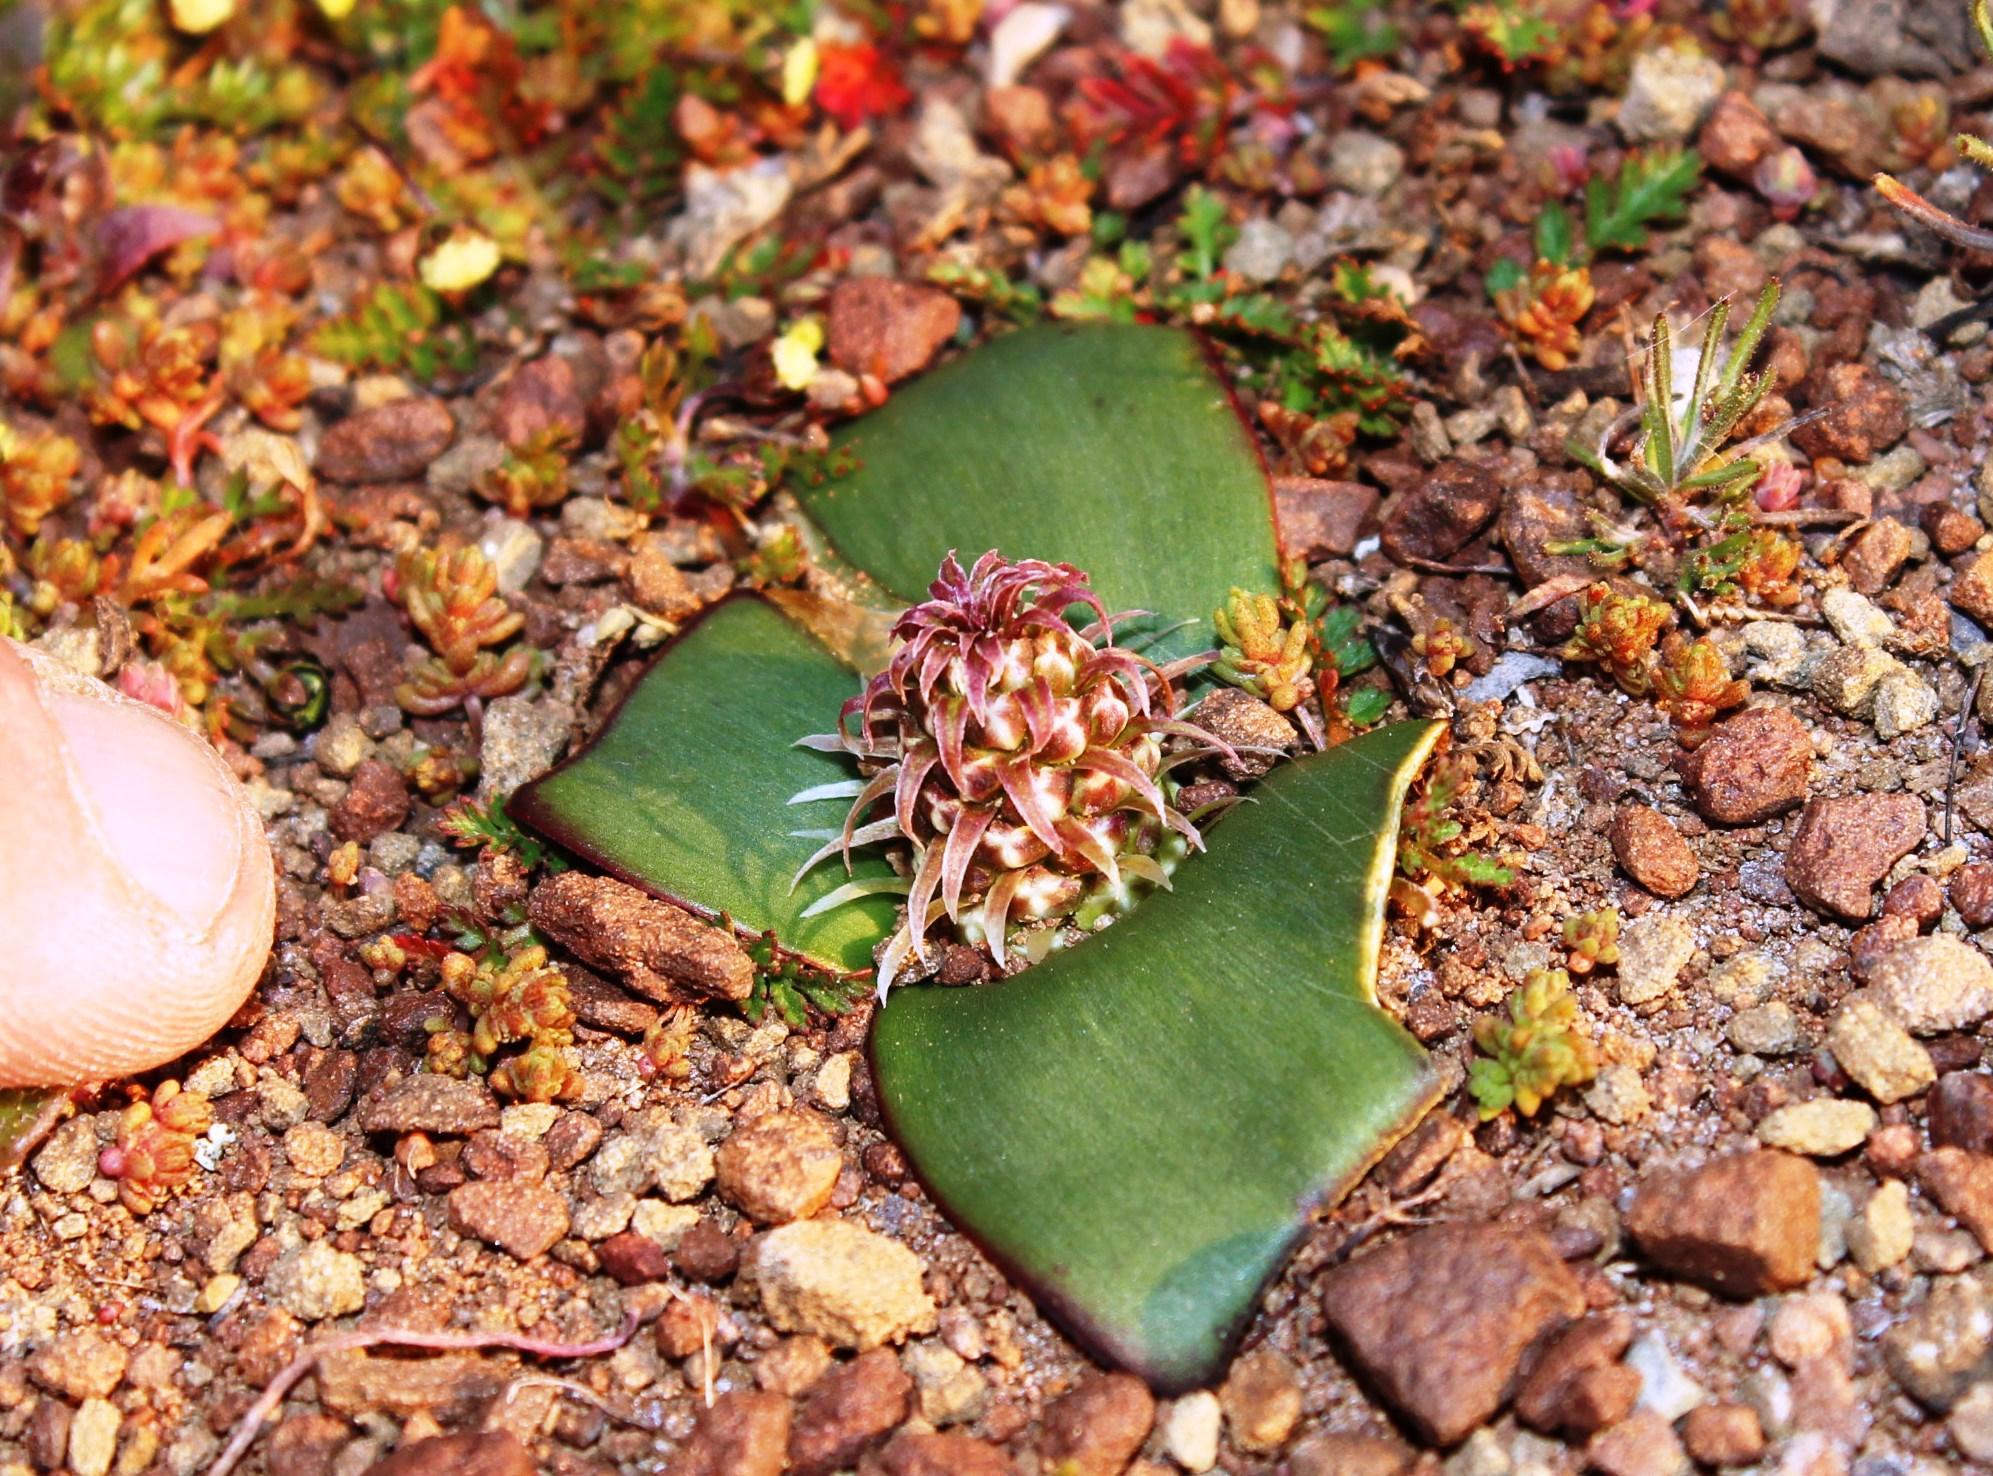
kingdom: Plantae
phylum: Tracheophyta
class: Liliopsida
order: Asparagales
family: Asparagaceae
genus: Lachenalia
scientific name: Lachenalia congesta
